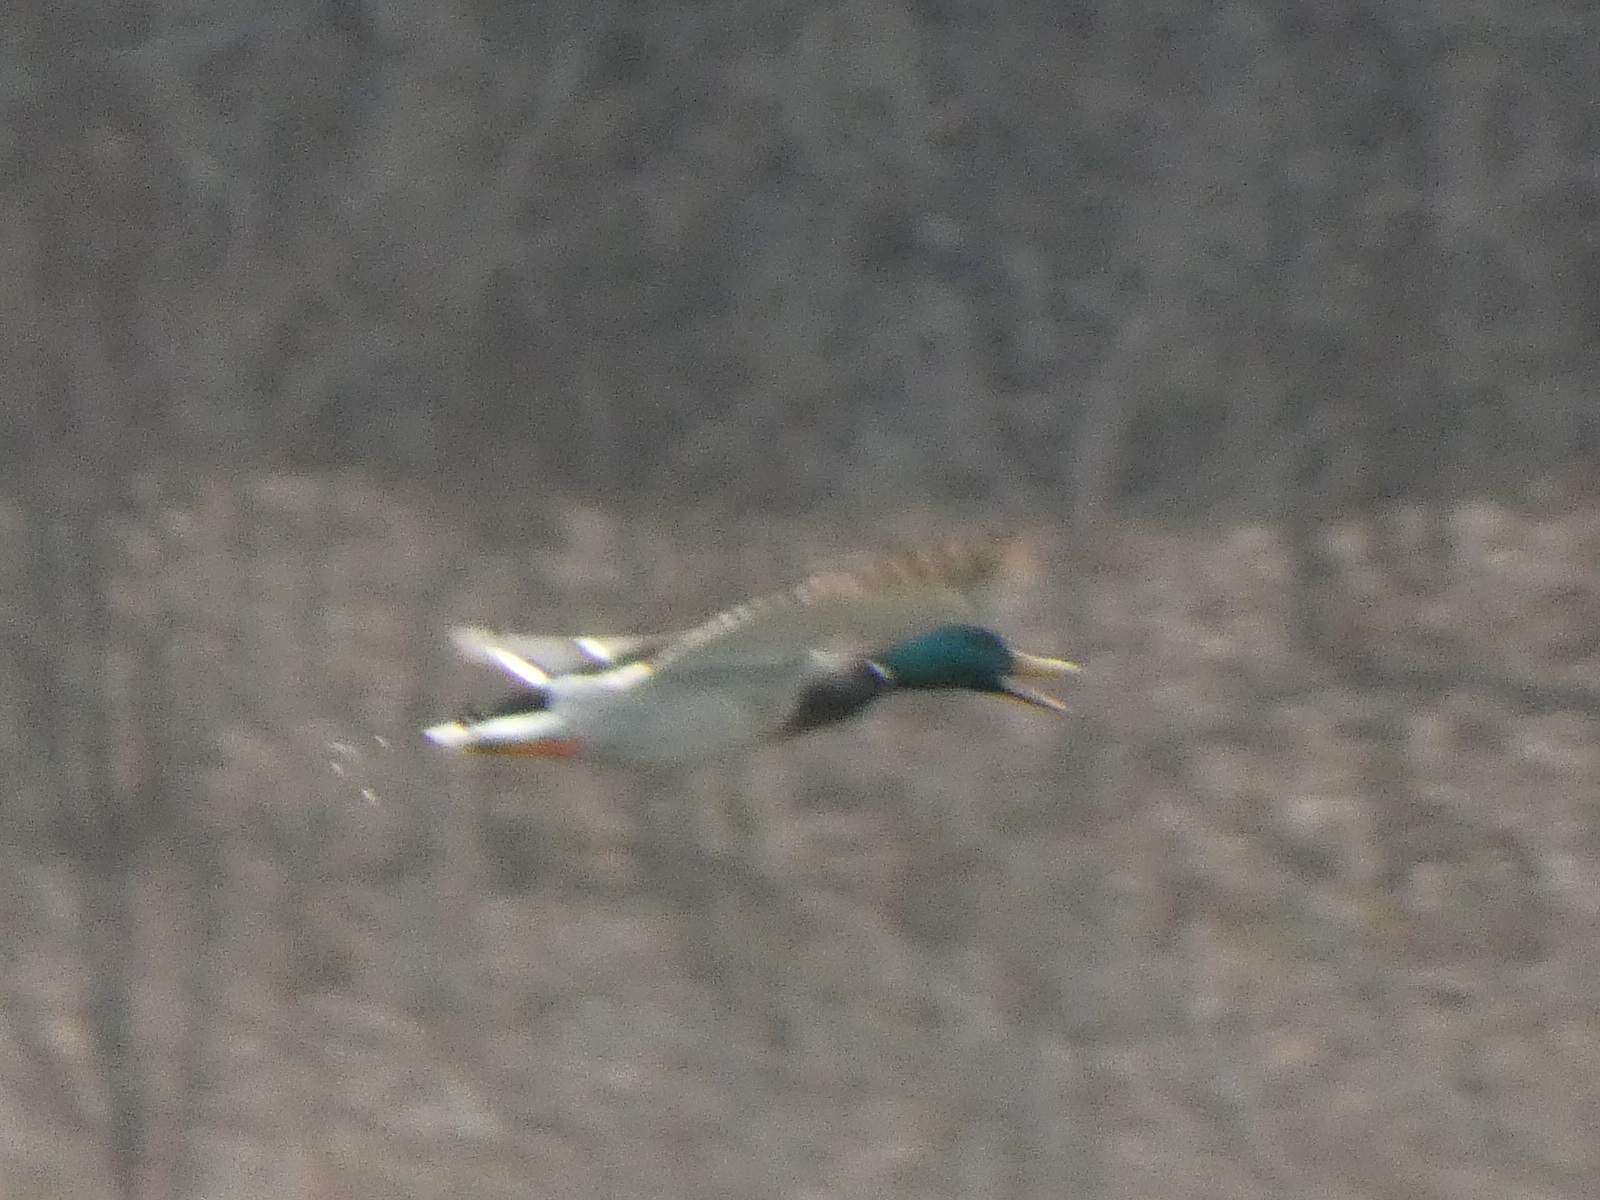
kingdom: Animalia
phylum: Chordata
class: Aves
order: Anseriformes
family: Anatidae
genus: Anas
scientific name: Anas platyrhynchos
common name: Mallard
